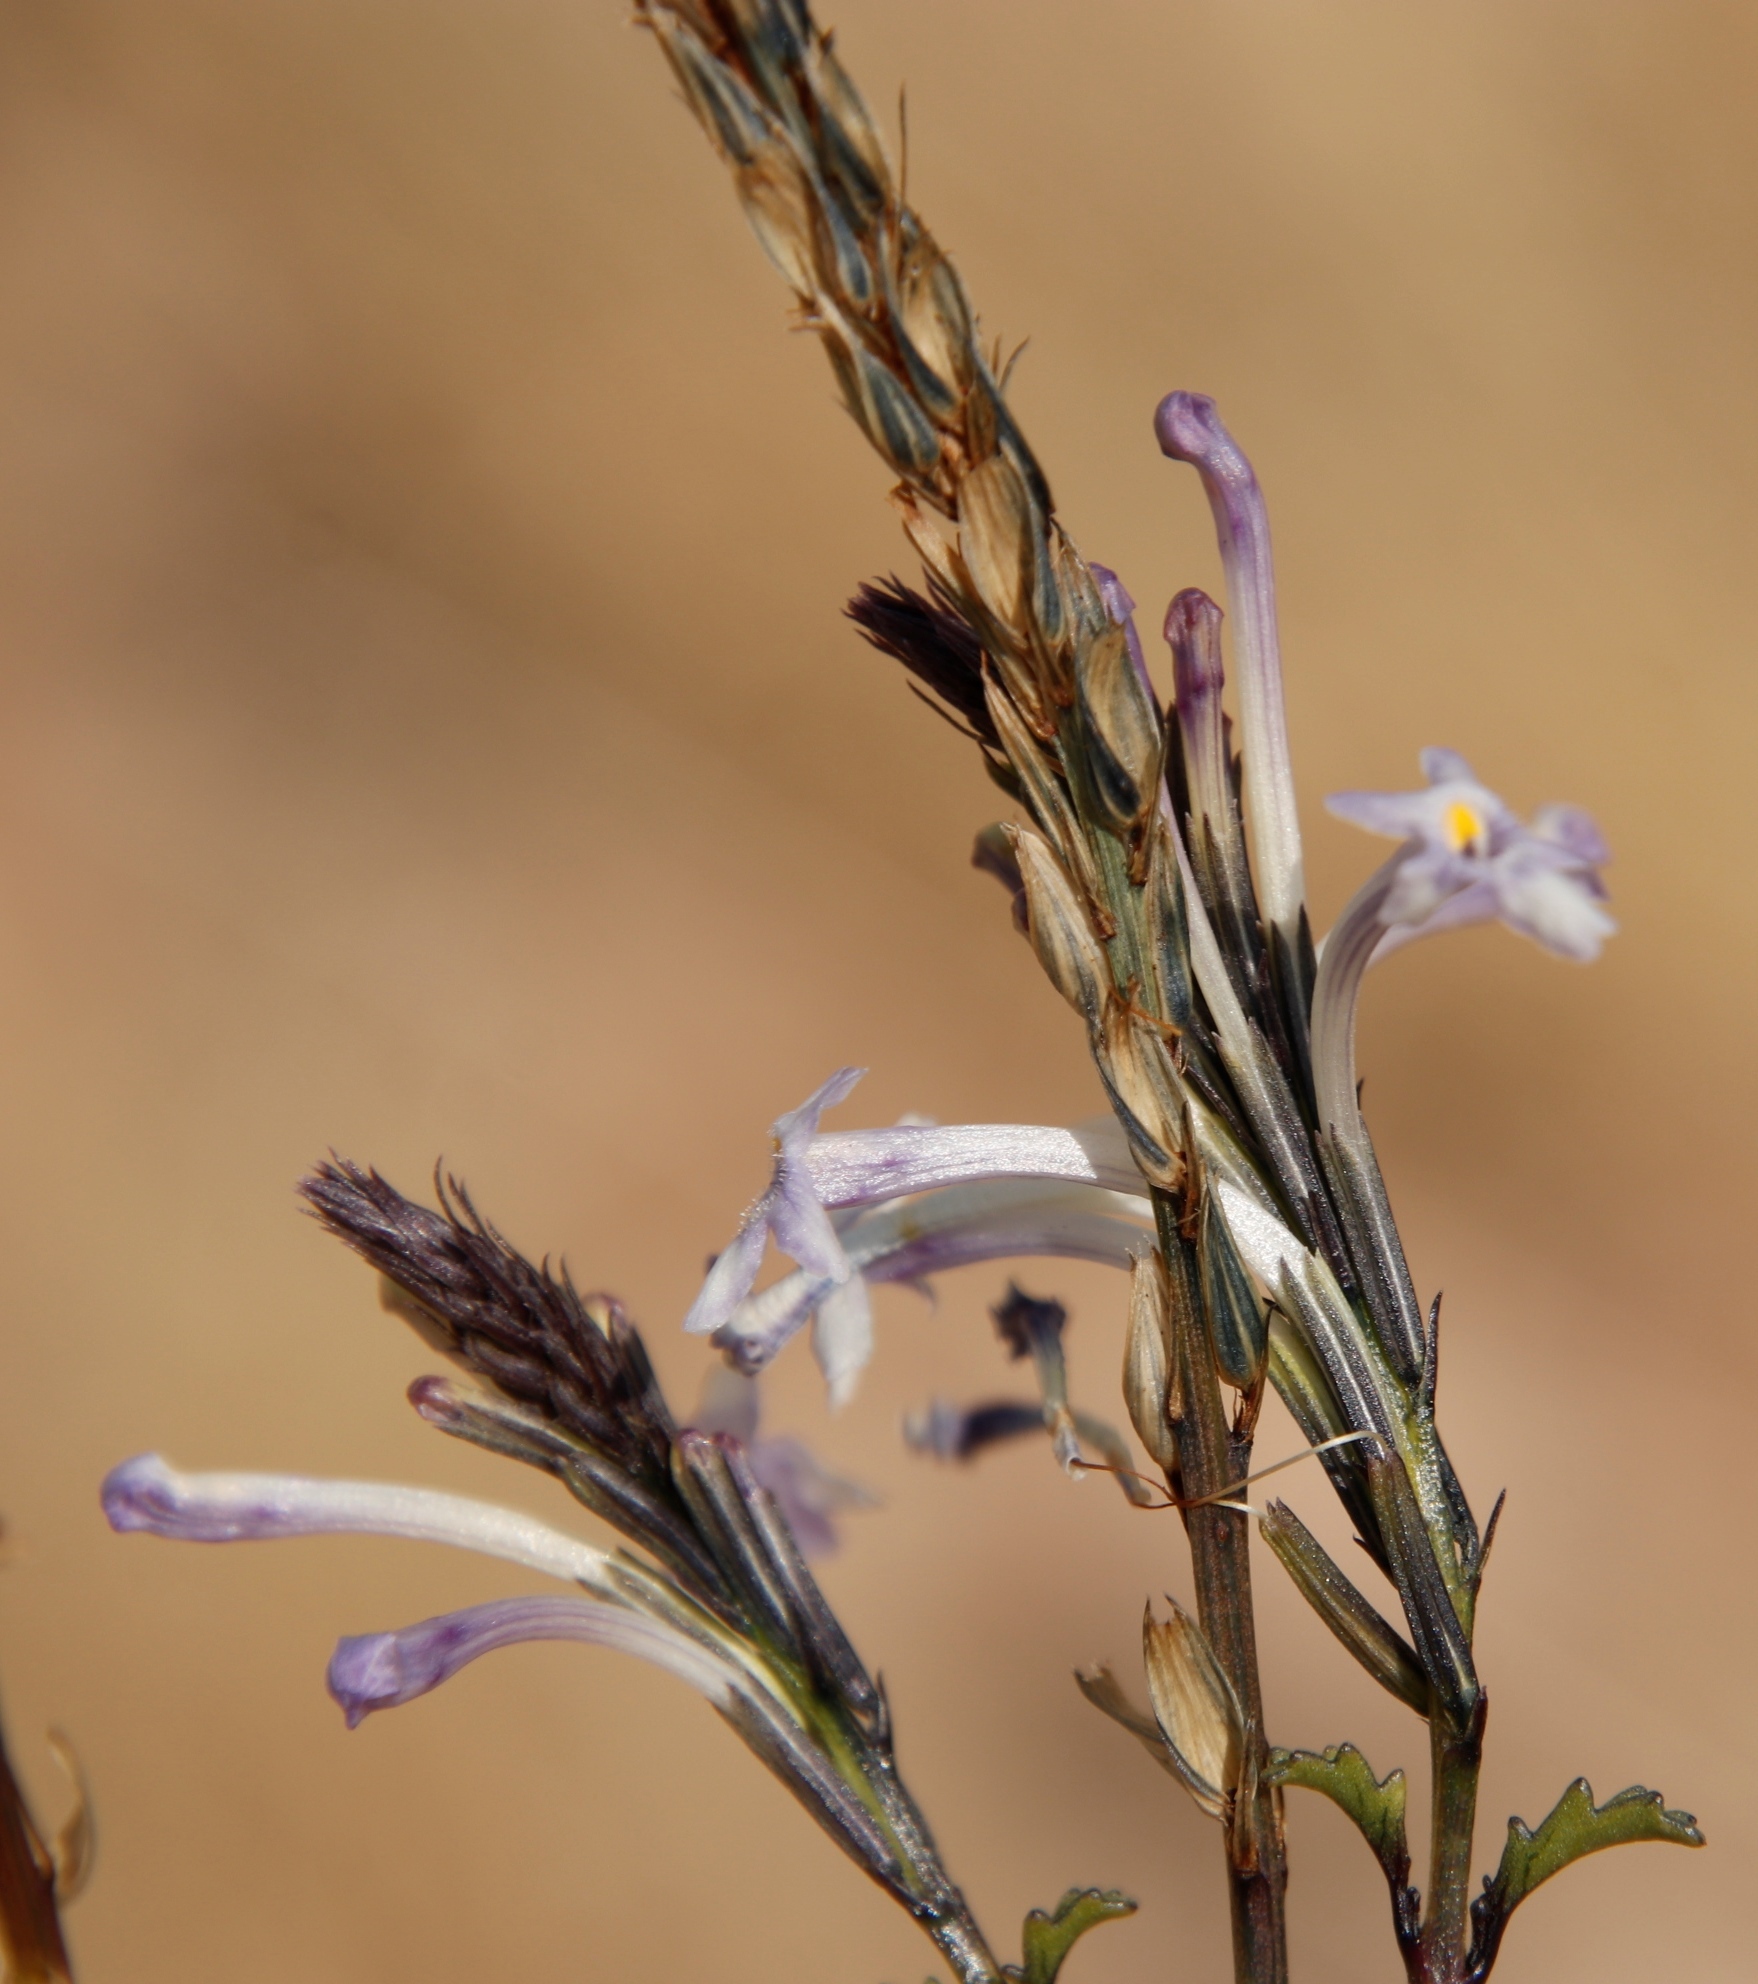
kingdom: Plantae
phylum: Tracheophyta
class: Magnoliopsida
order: Lamiales
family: Verbenaceae
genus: Chascanum
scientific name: Chascanum garipense
